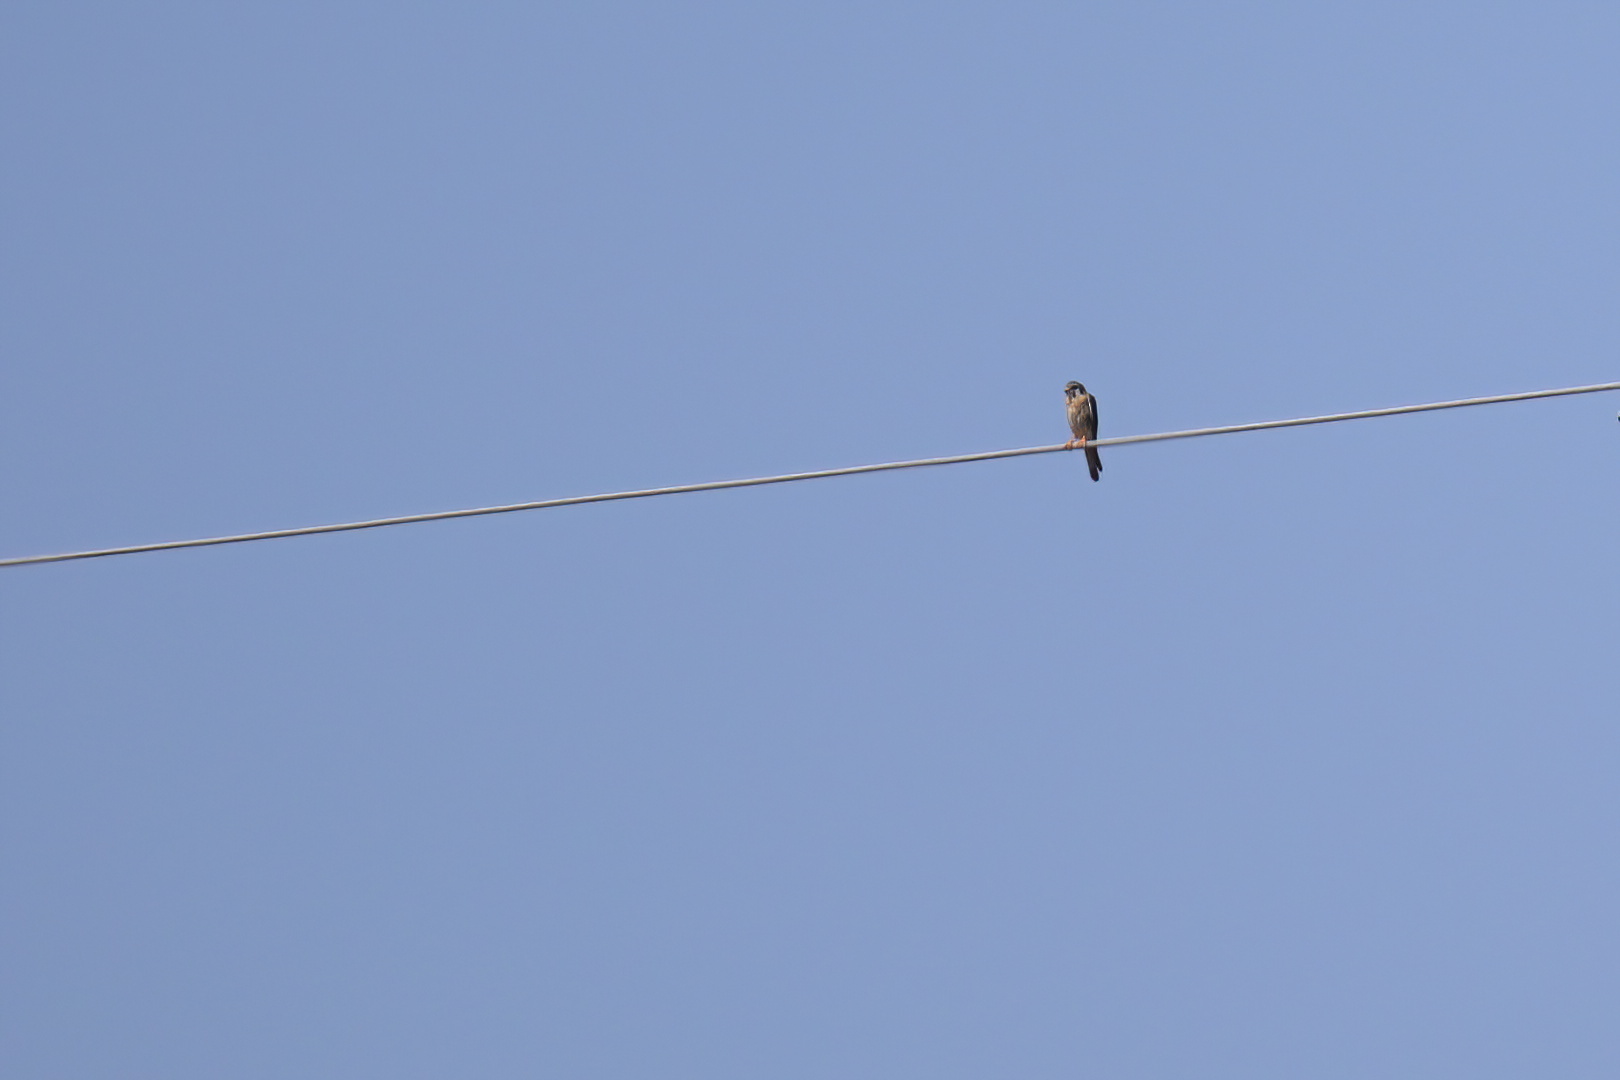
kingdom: Animalia
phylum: Chordata
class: Aves
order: Falconiformes
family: Falconidae
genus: Falco
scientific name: Falco sparverius
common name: American kestrel
